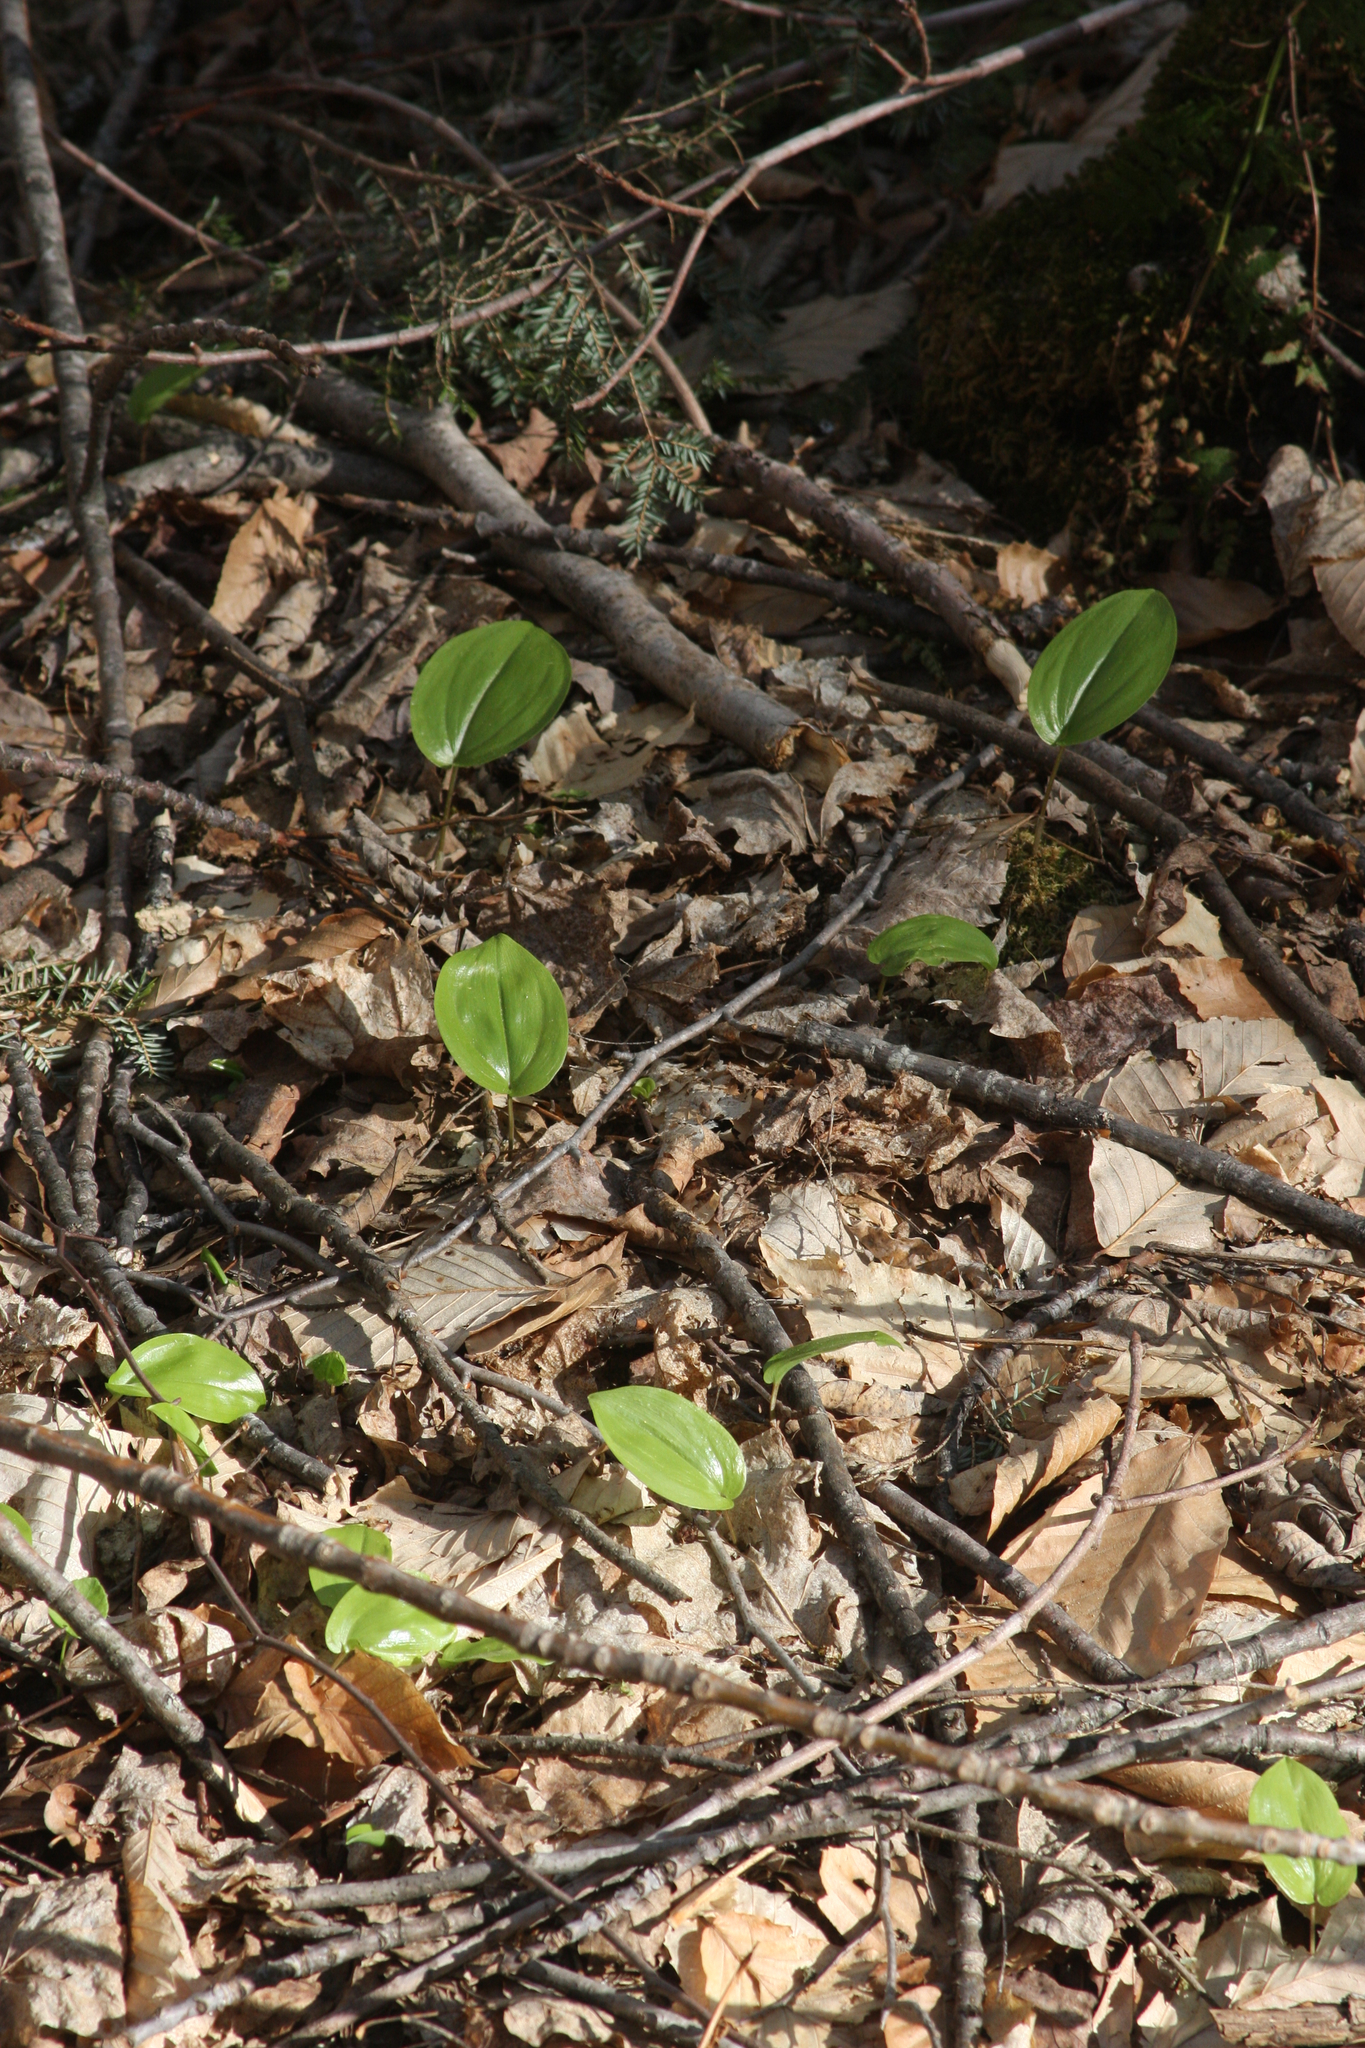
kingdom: Plantae
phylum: Tracheophyta
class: Liliopsida
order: Asparagales
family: Asparagaceae
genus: Maianthemum
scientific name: Maianthemum canadense
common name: False lily-of-the-valley
